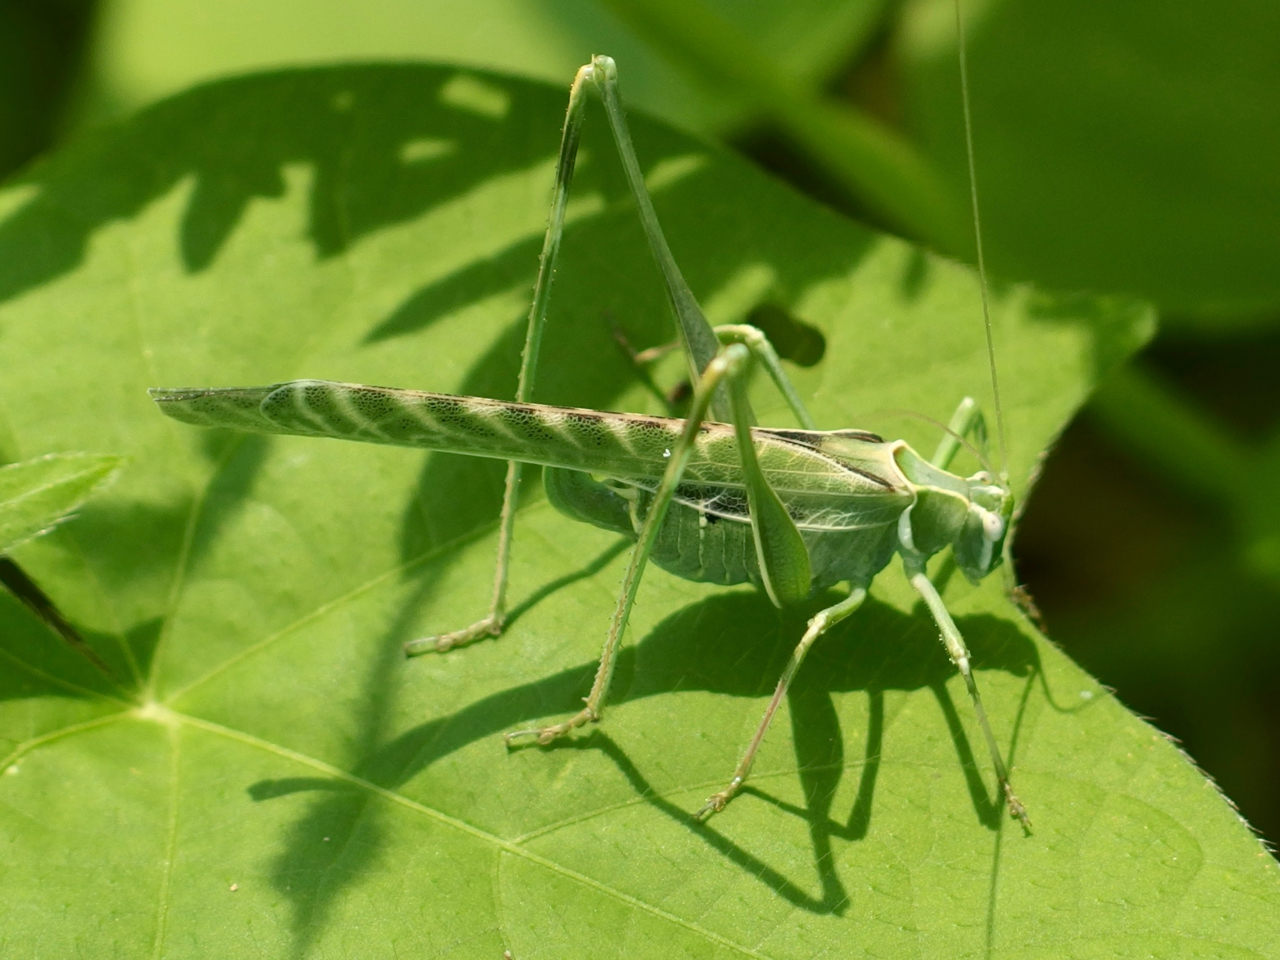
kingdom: Animalia
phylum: Arthropoda
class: Insecta
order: Orthoptera
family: Tettigoniidae
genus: Insara
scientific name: Insara elegans
